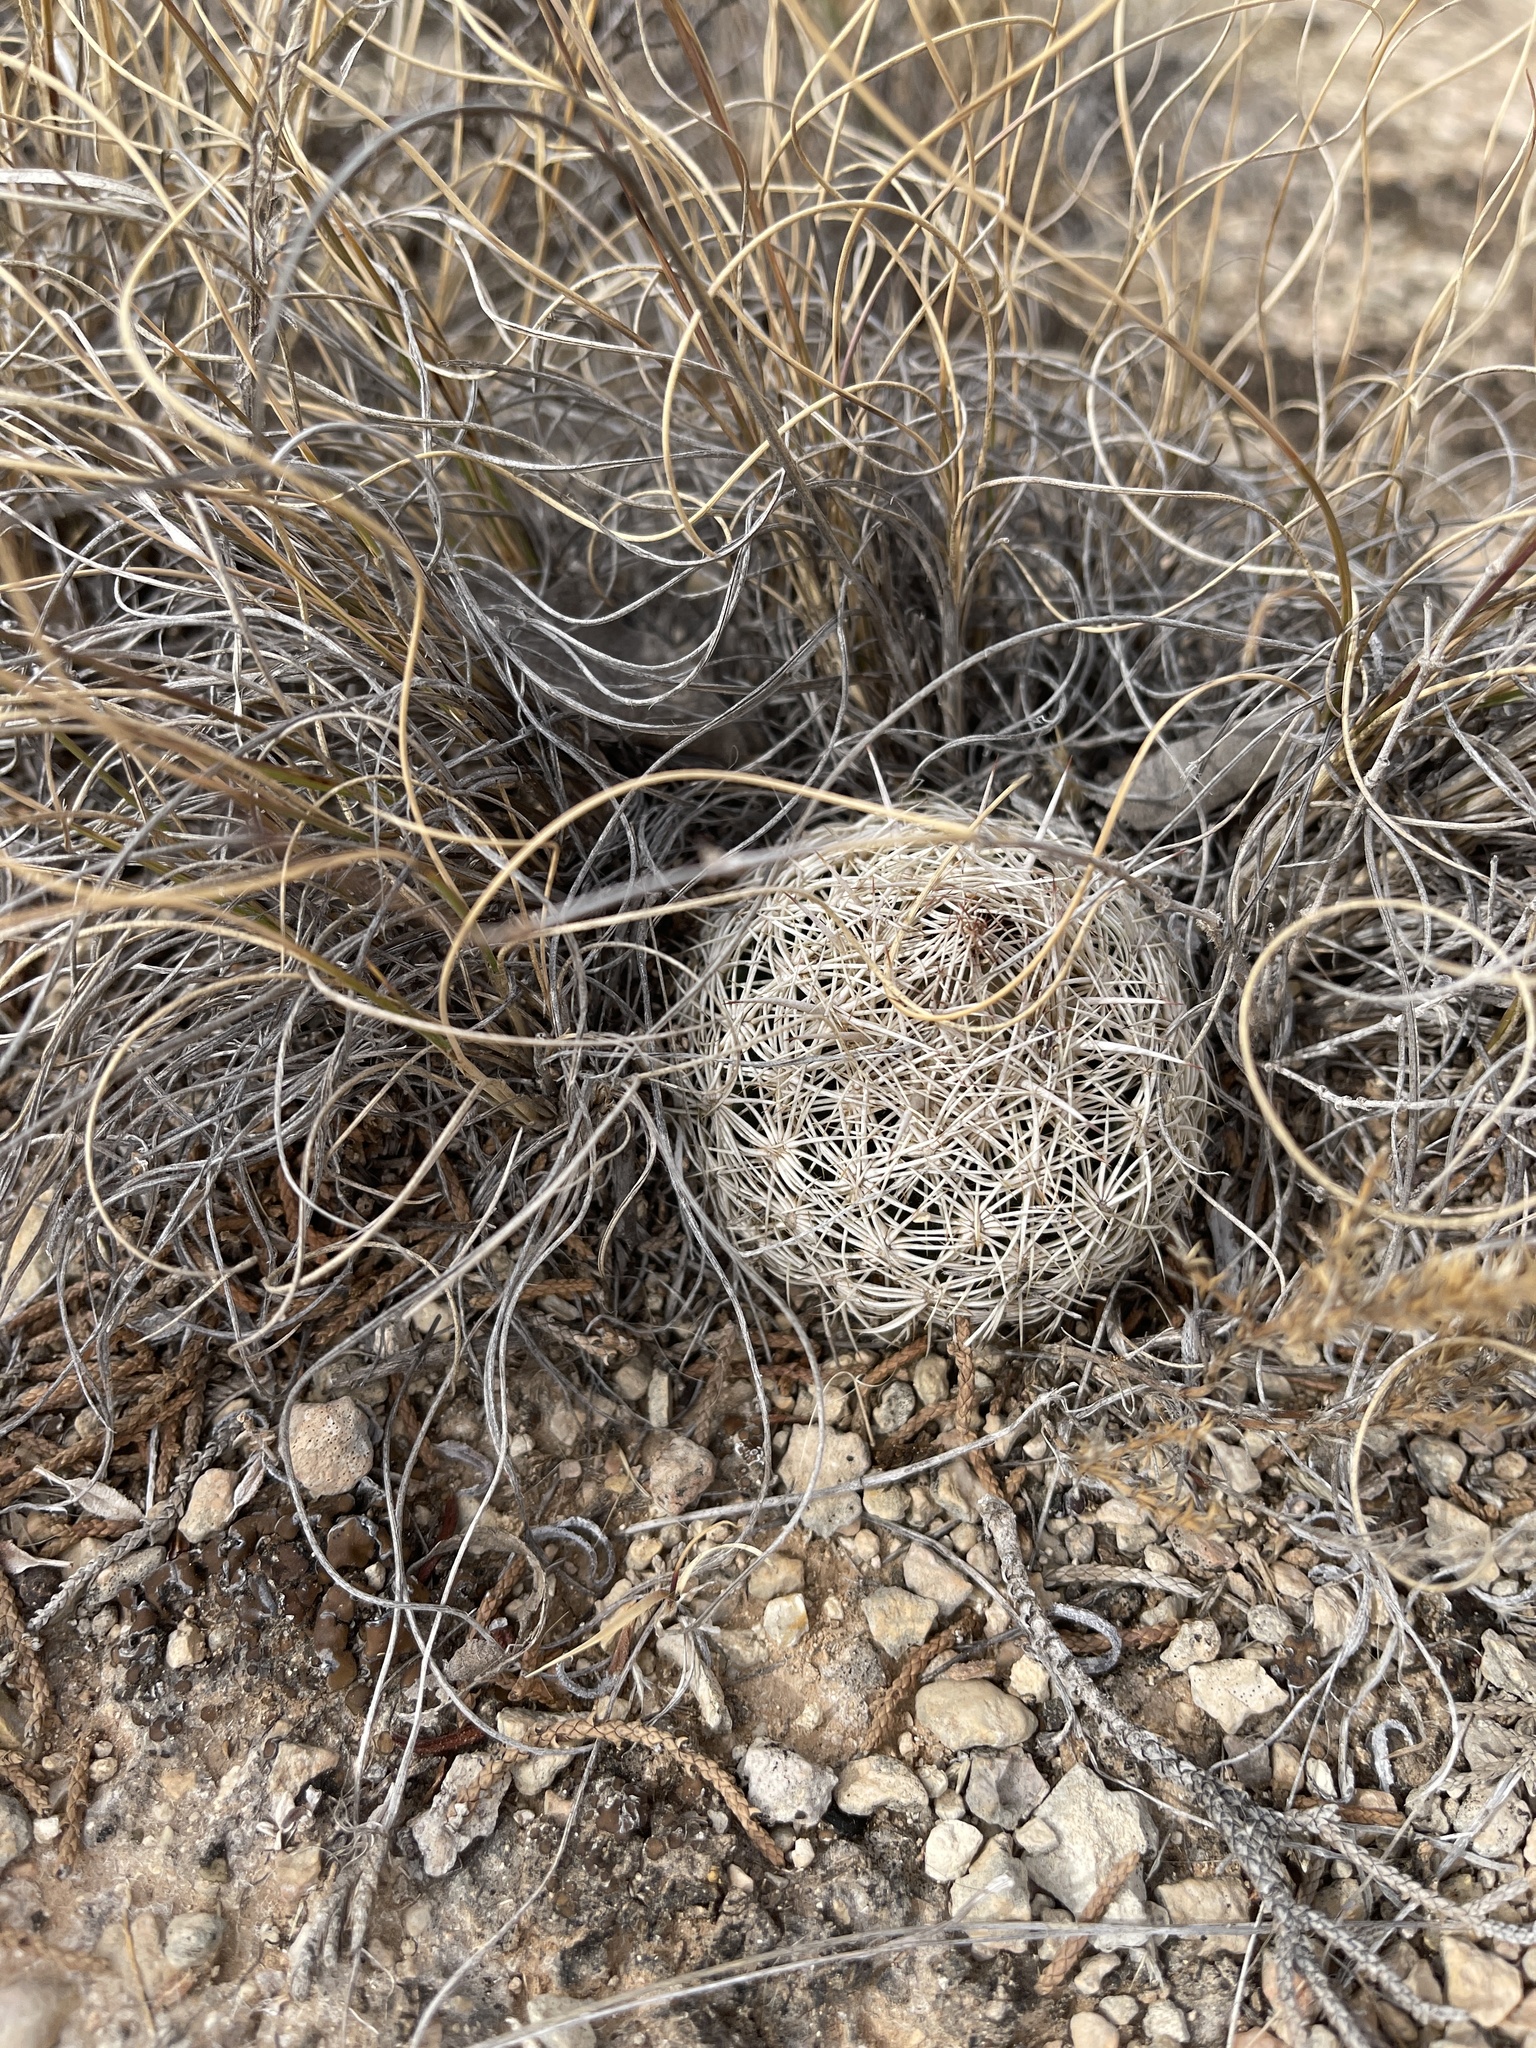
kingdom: Plantae
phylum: Tracheophyta
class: Magnoliopsida
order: Caryophyllales
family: Cactaceae
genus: Coryphantha
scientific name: Coryphantha echinus
